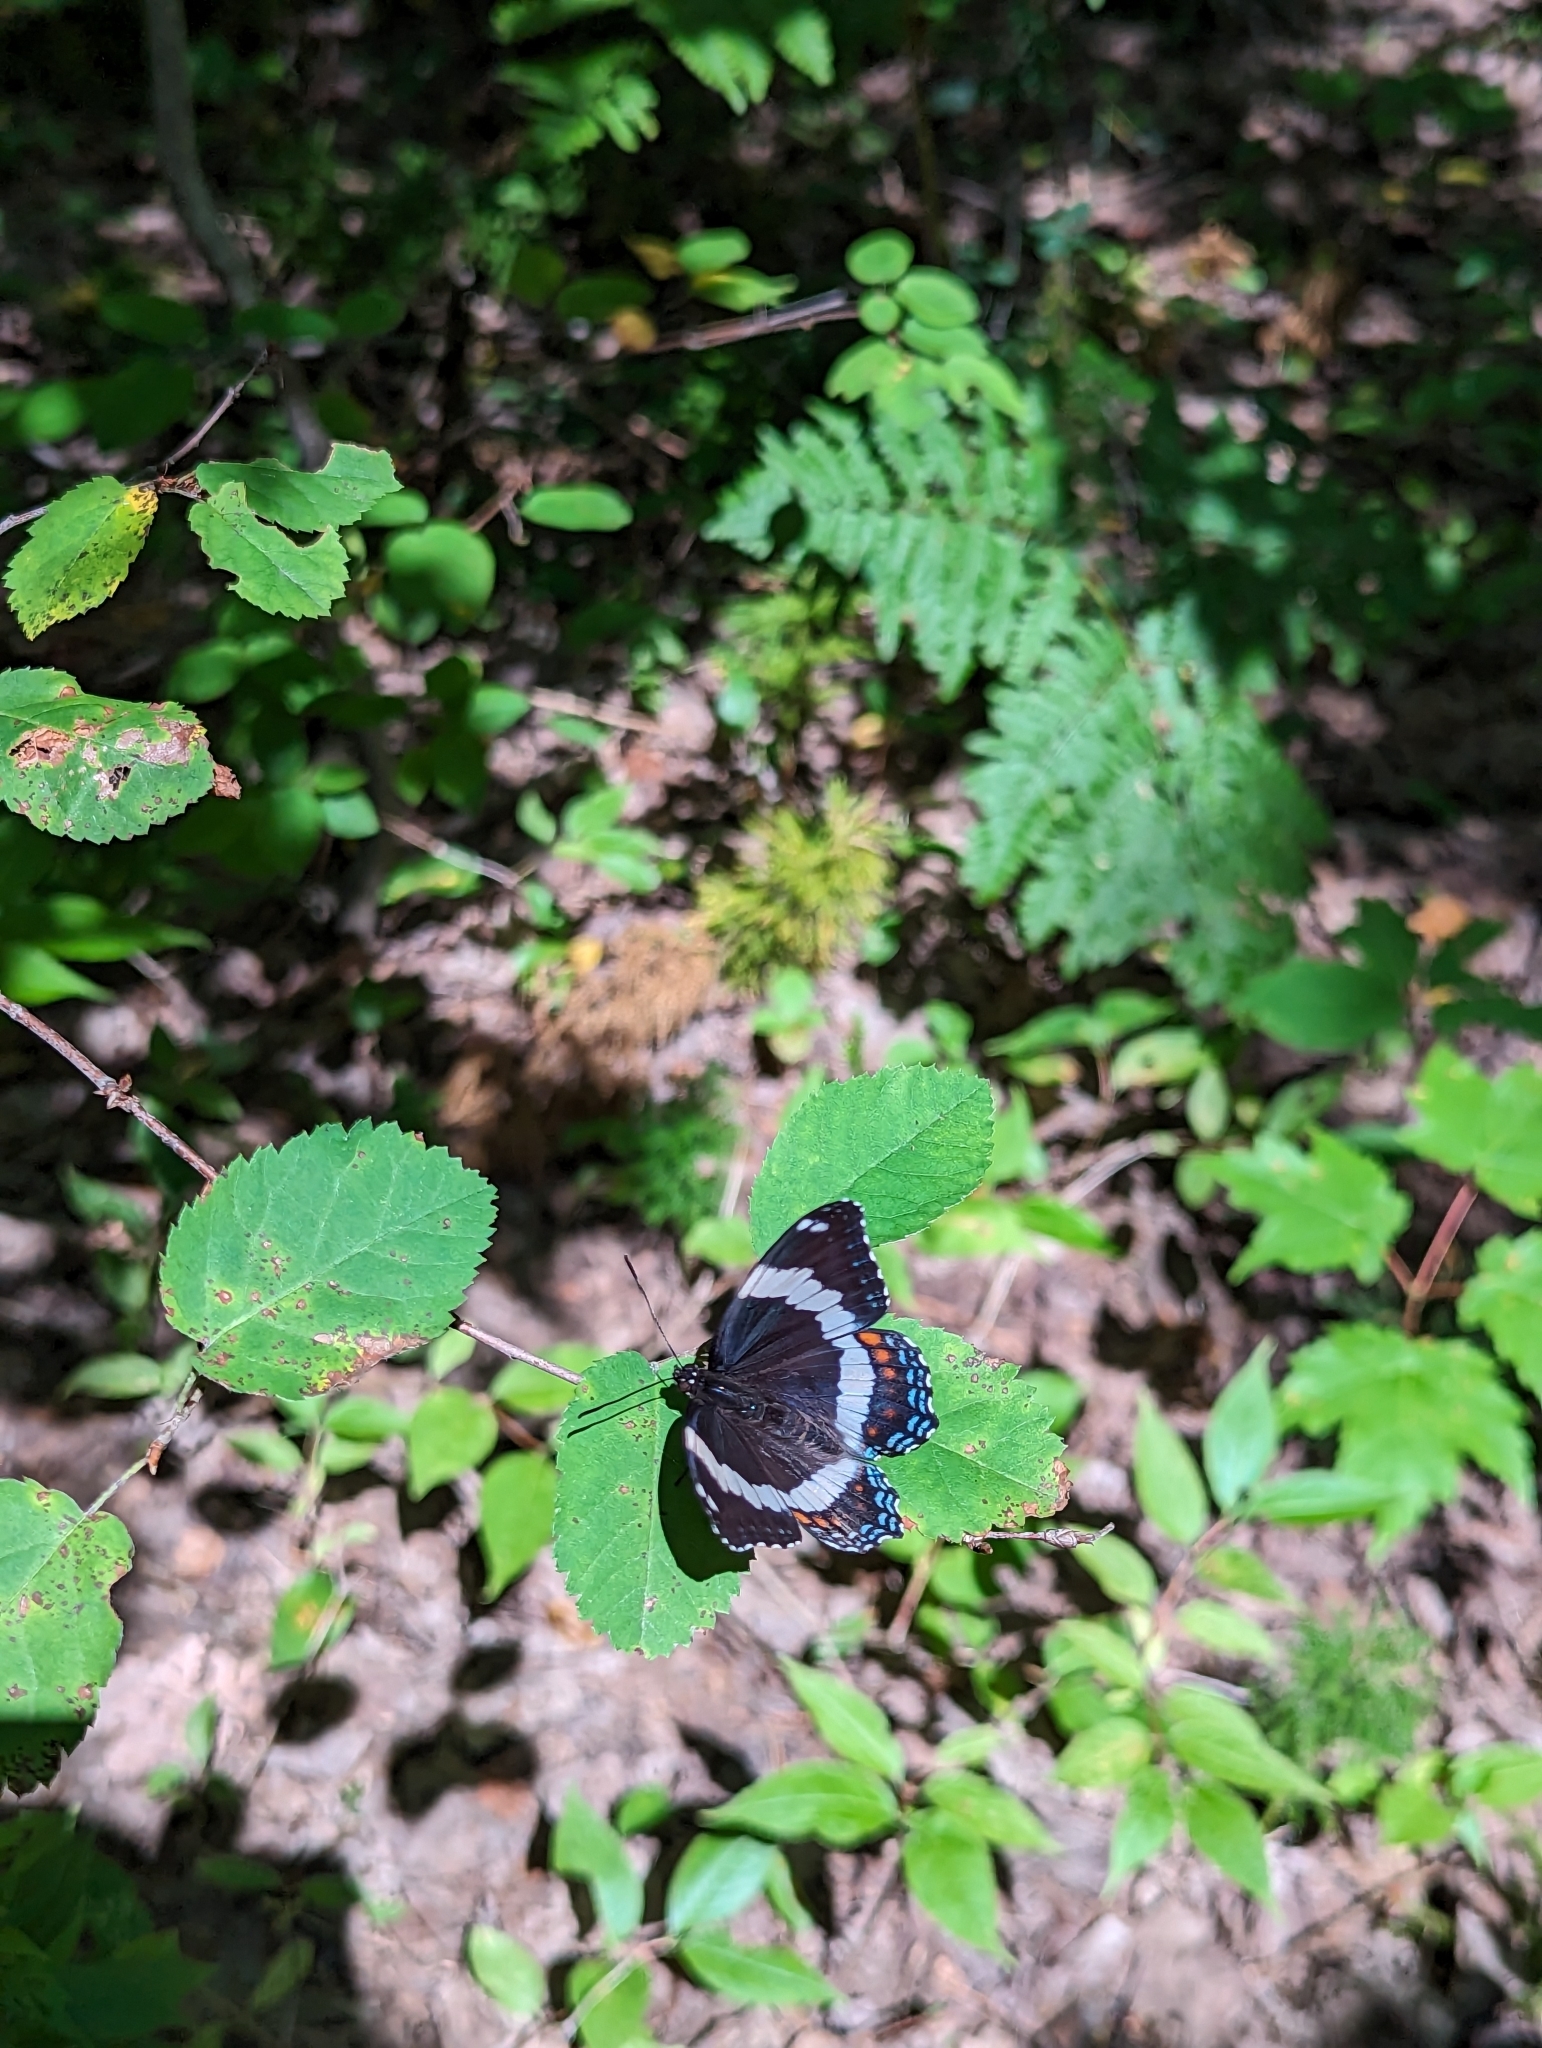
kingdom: Animalia
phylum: Arthropoda
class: Insecta
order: Lepidoptera
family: Nymphalidae
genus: Limenitis
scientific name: Limenitis arthemis
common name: Red-spotted admiral
